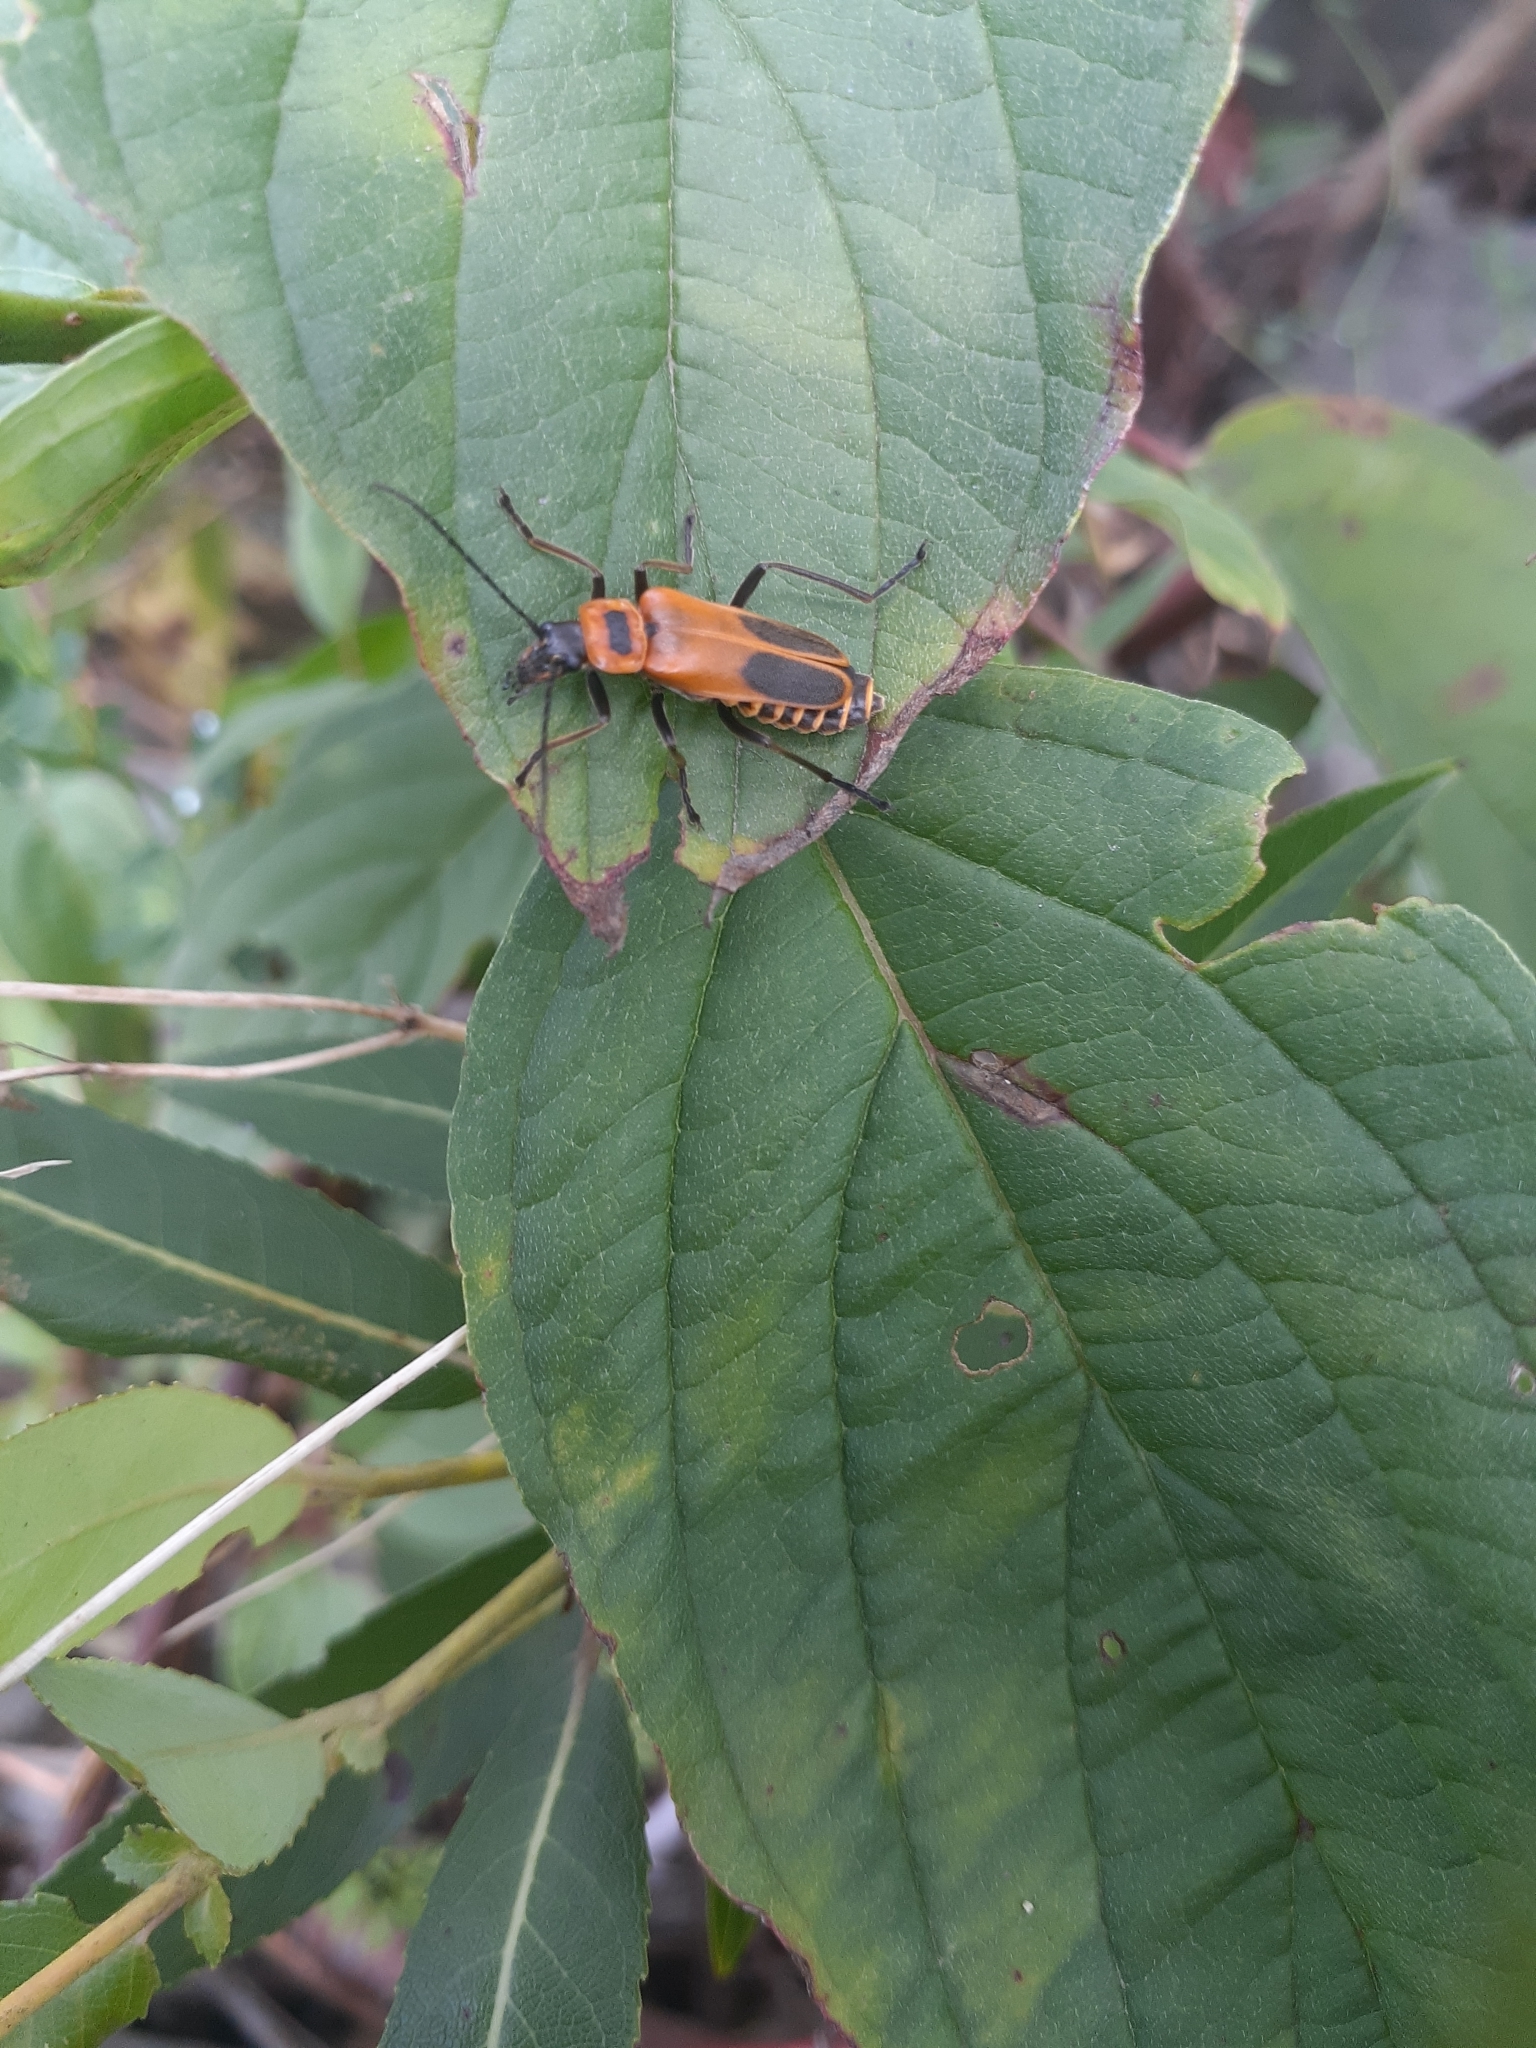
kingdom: Animalia
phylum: Arthropoda
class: Insecta
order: Coleoptera
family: Cantharidae
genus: Chauliognathus
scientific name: Chauliognathus pensylvanicus
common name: Goldenrod soldier beetle
